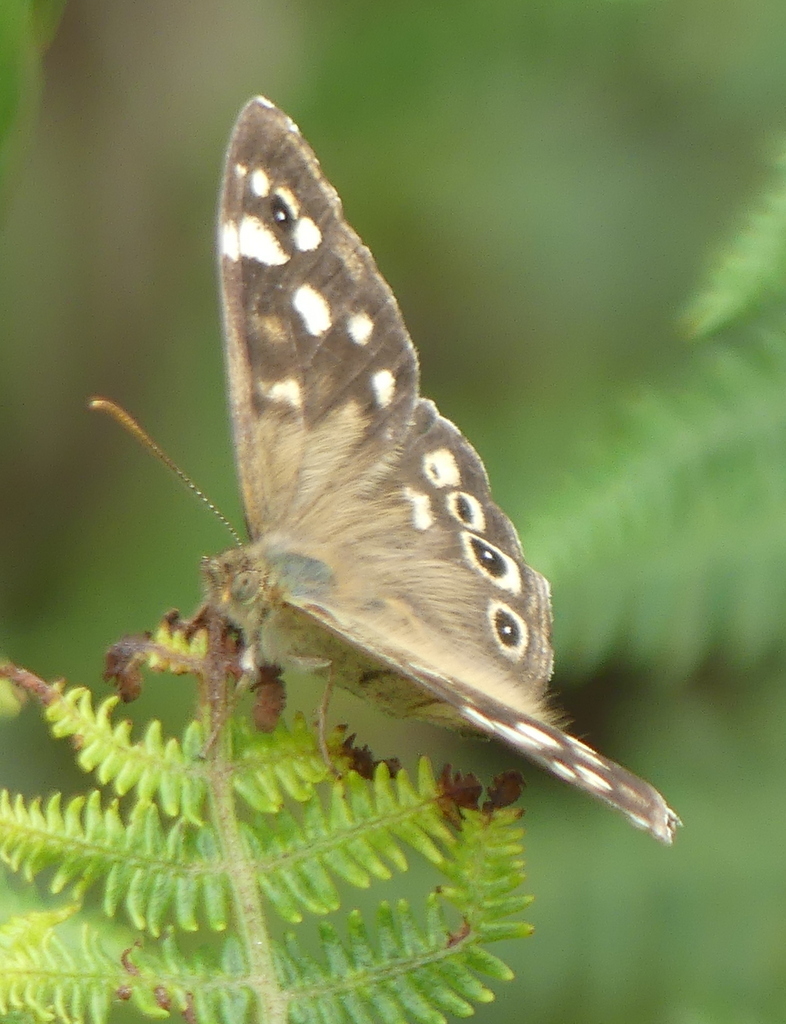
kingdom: Animalia
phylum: Arthropoda
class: Insecta
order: Lepidoptera
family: Nymphalidae
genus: Pararge
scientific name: Pararge aegeria
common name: Speckled wood
